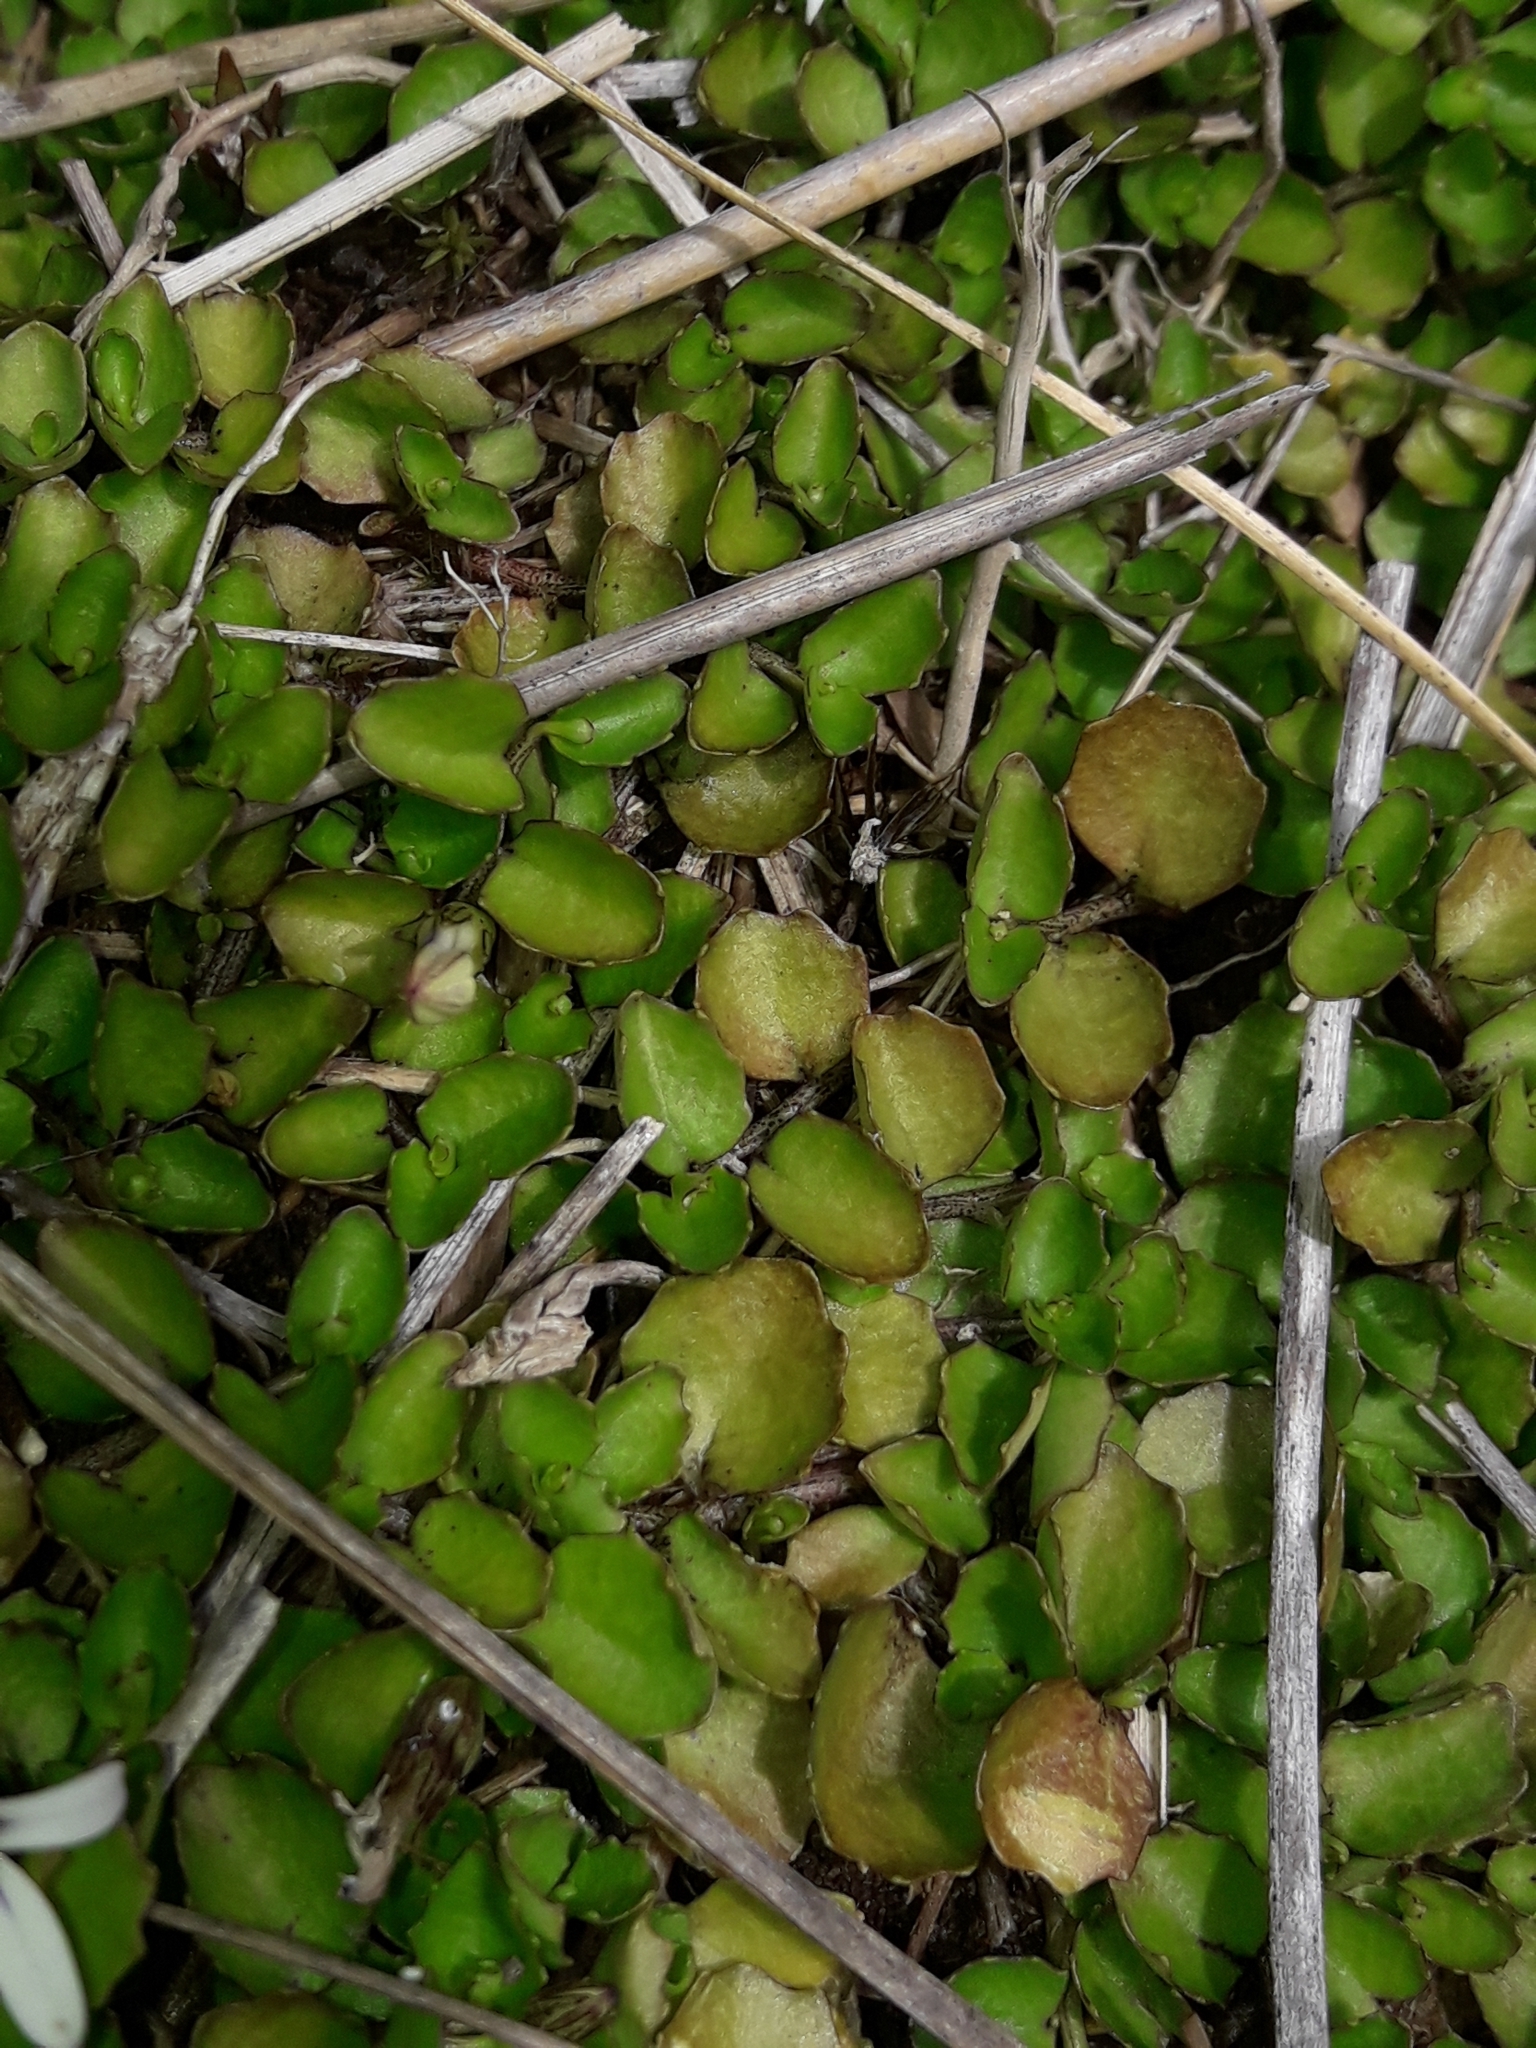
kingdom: Plantae
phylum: Tracheophyta
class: Magnoliopsida
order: Asterales
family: Campanulaceae
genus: Lobelia
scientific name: Lobelia angulata
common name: Lawn lobelia
